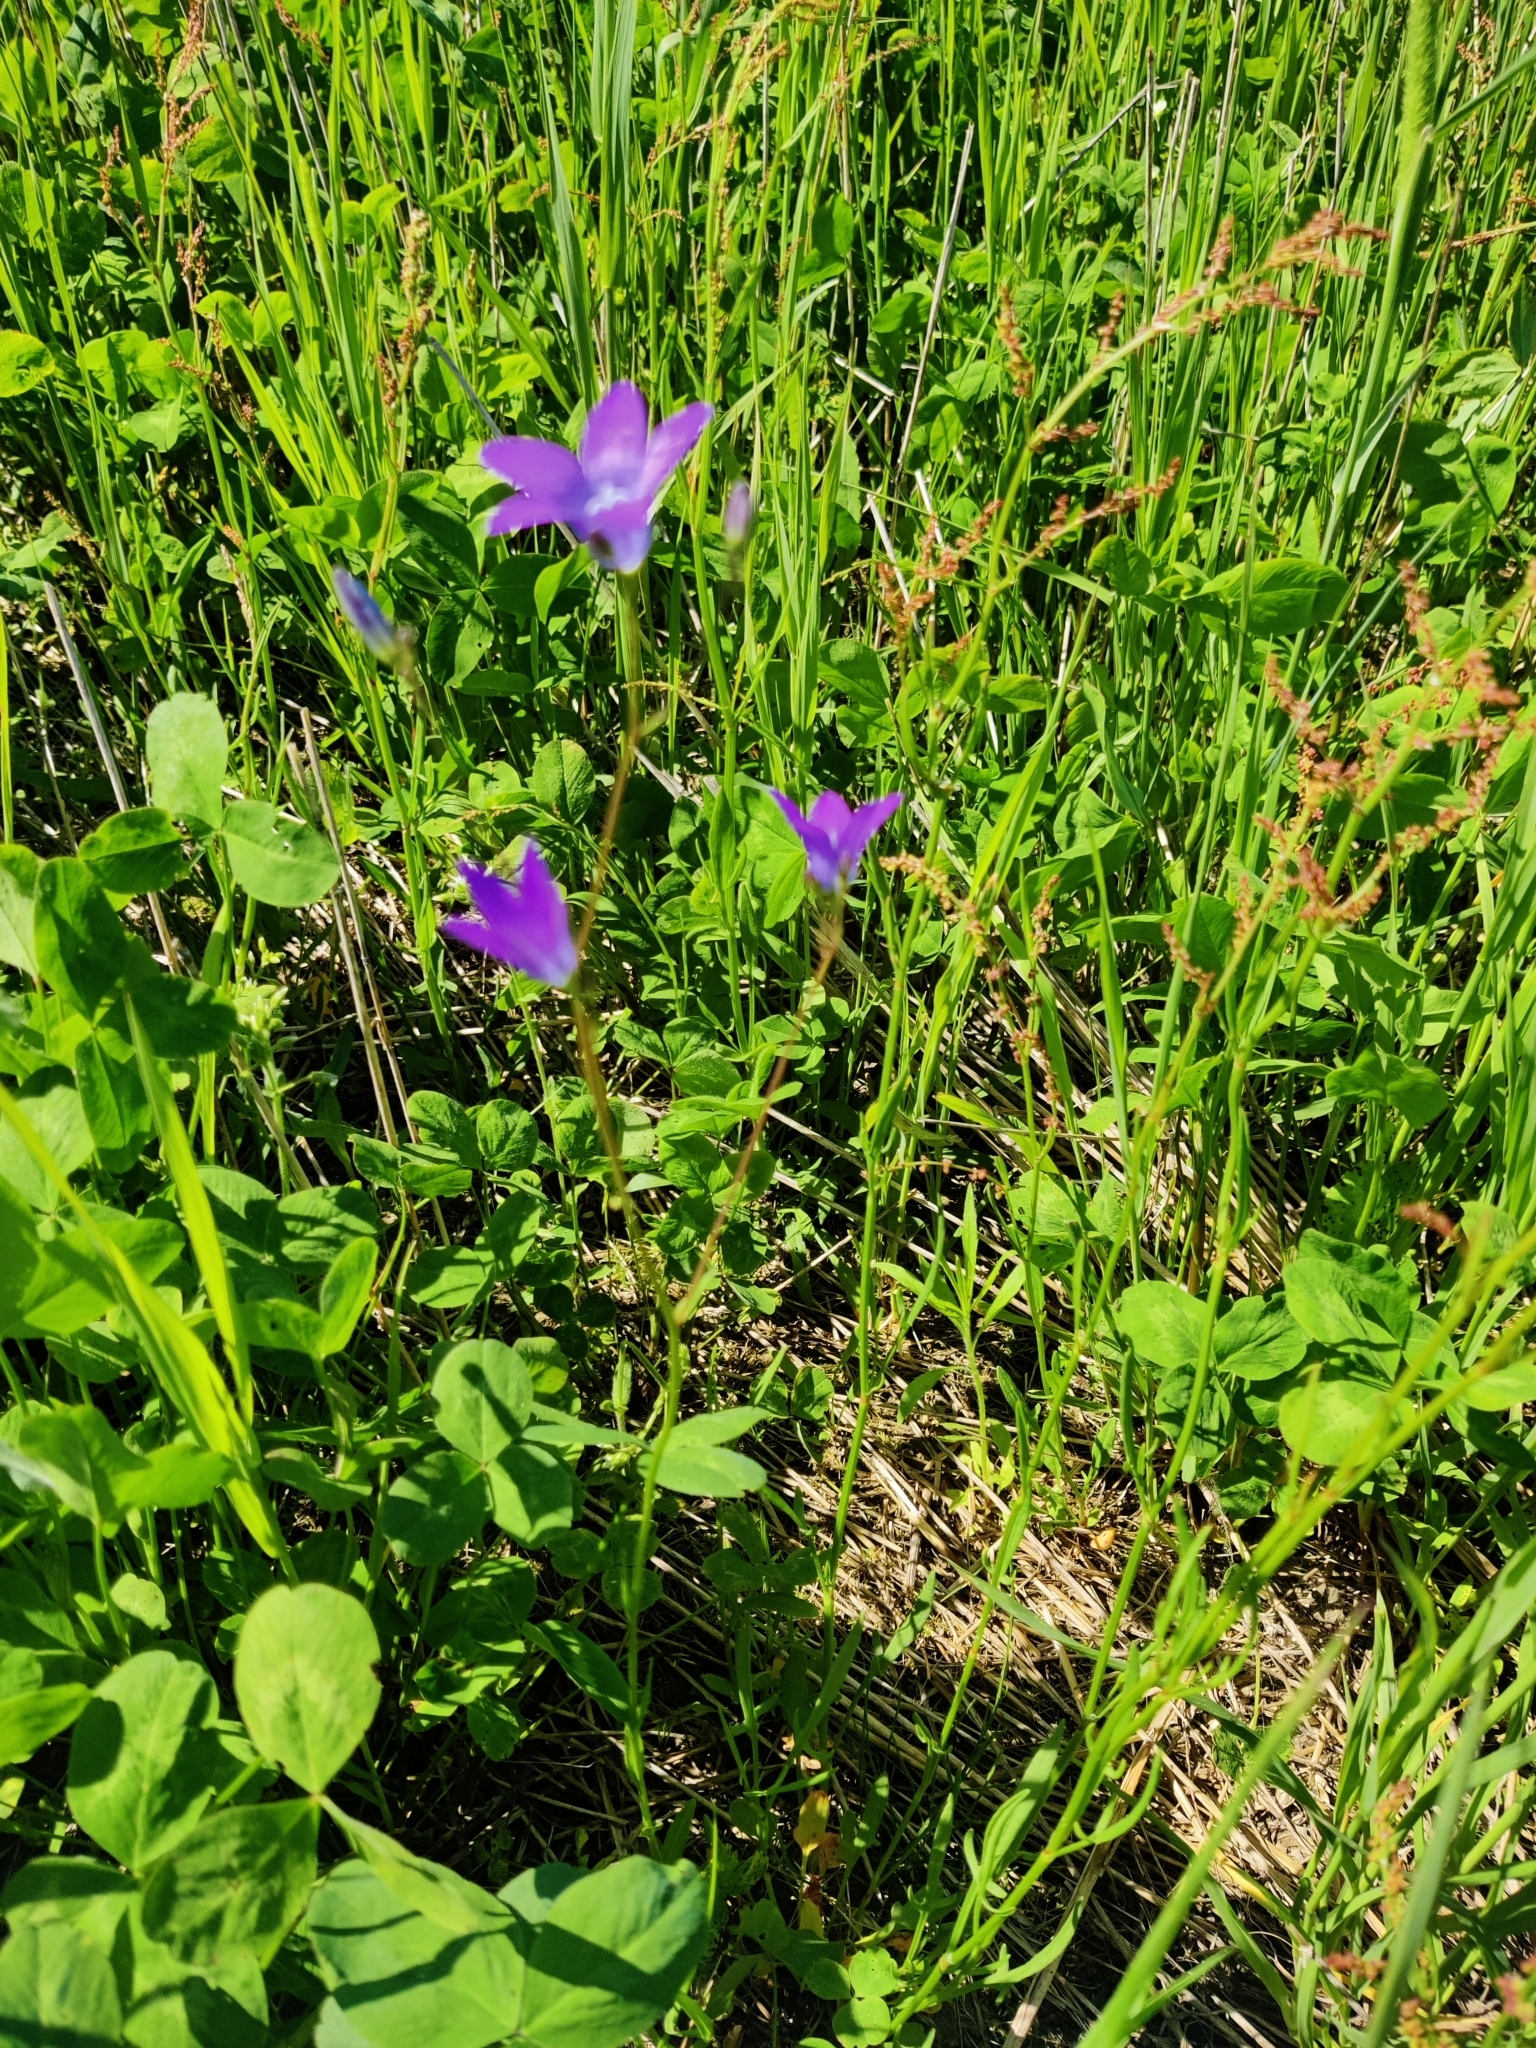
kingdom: Plantae
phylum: Tracheophyta
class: Magnoliopsida
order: Asterales
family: Campanulaceae
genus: Campanula
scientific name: Campanula patula
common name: Spreading bellflower
